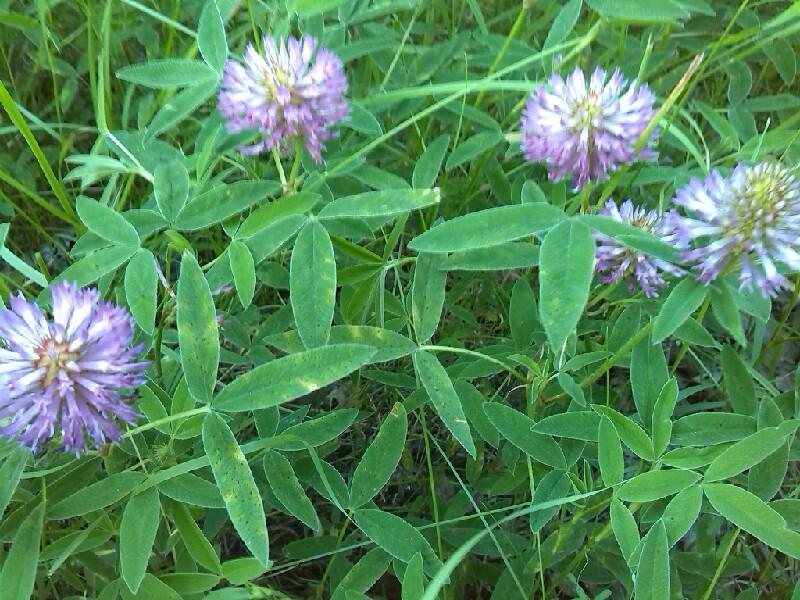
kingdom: Plantae
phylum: Tracheophyta
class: Magnoliopsida
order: Fabales
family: Fabaceae
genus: Trifolium
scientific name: Trifolium medium
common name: Zigzag clover
